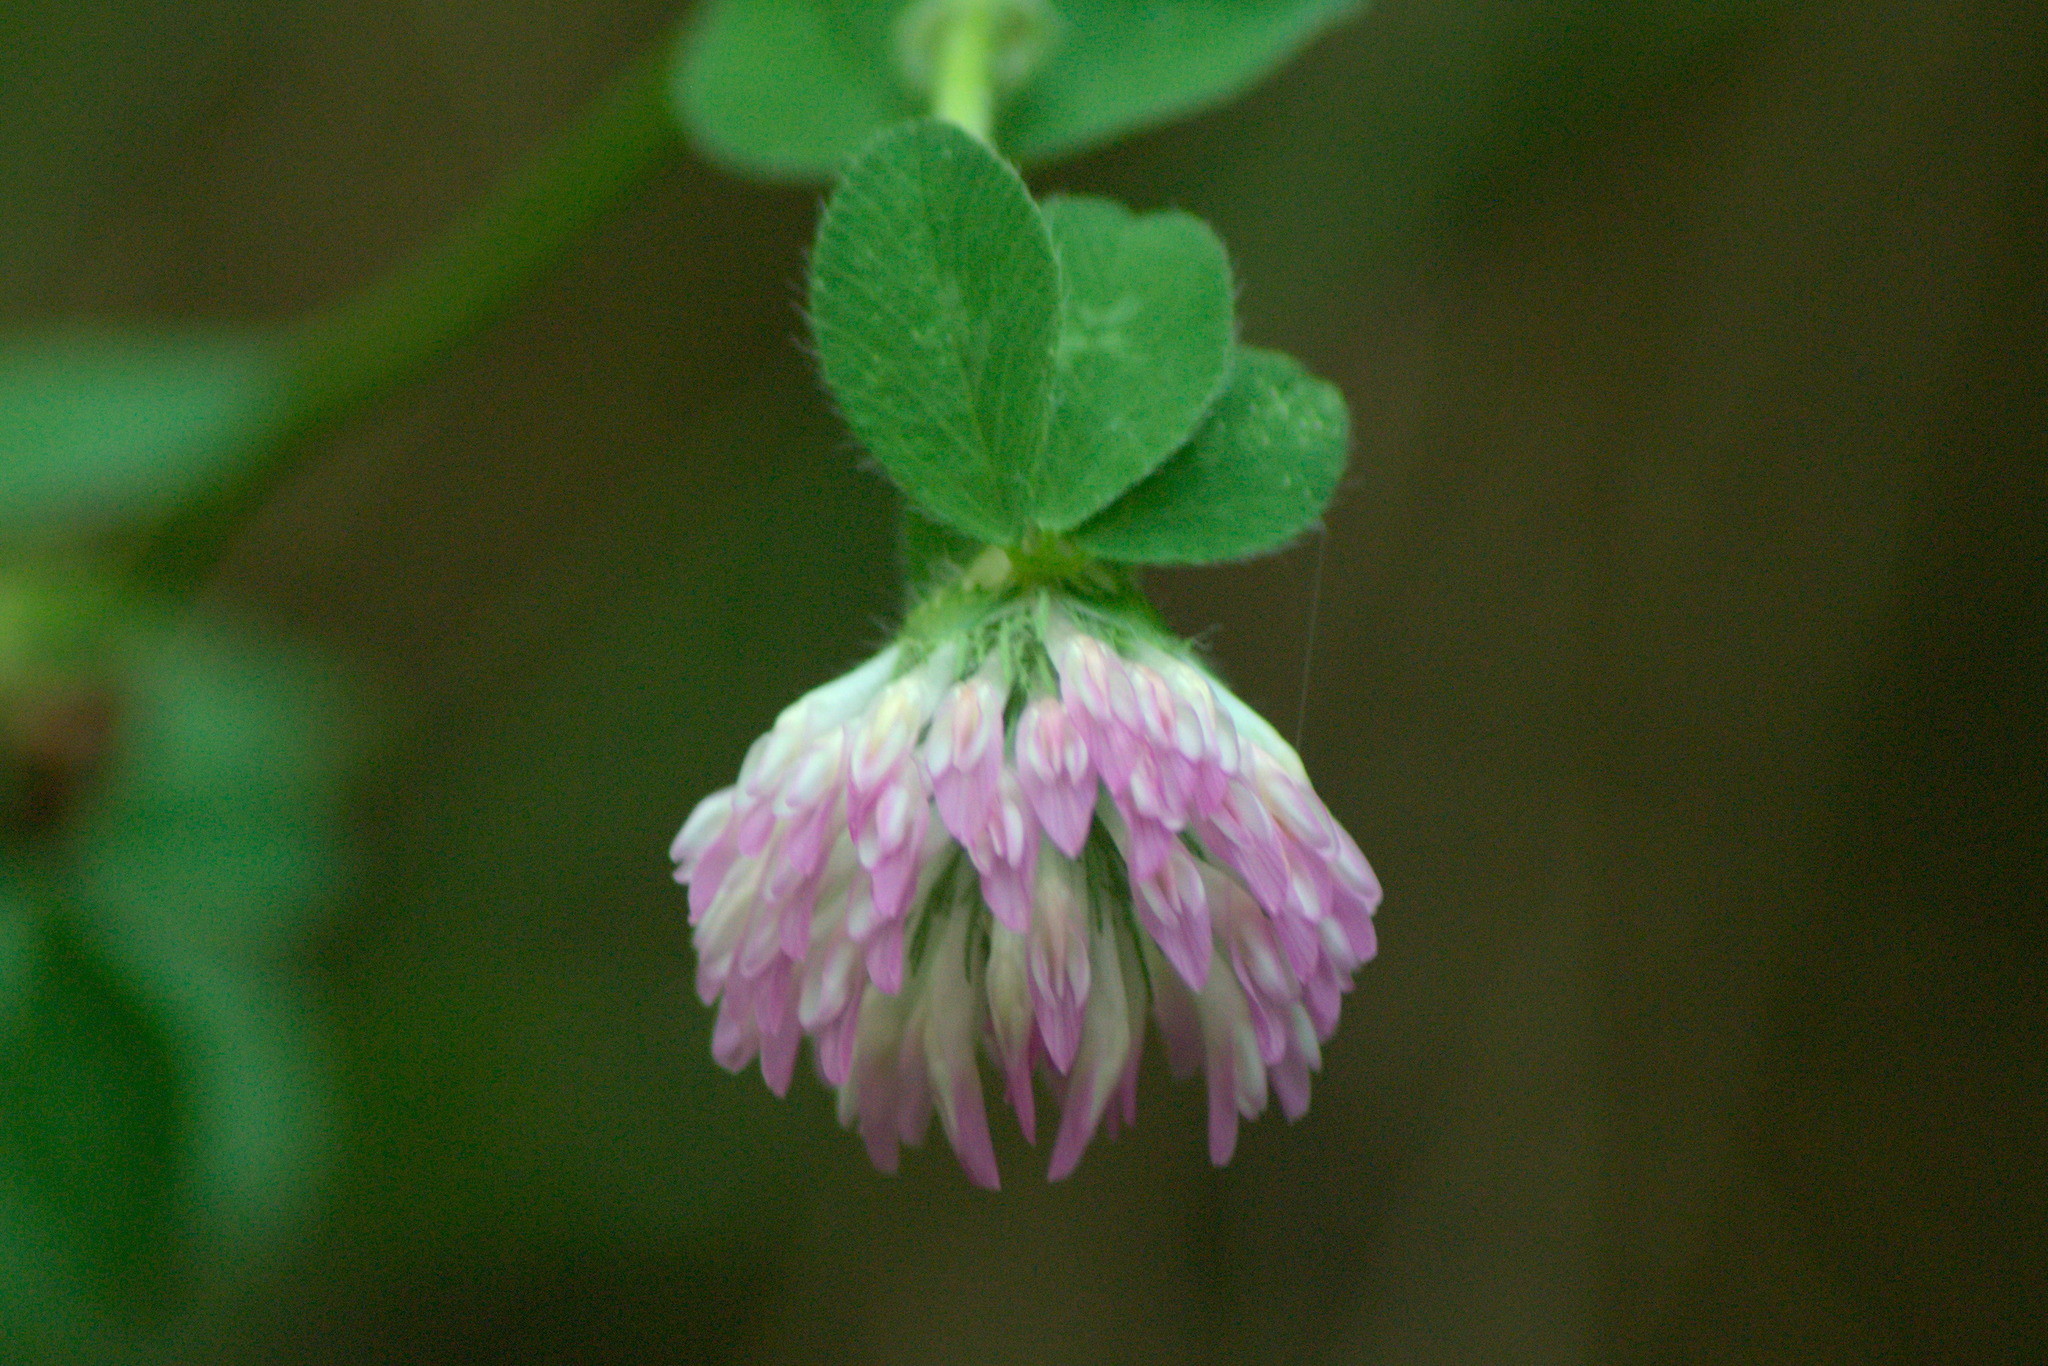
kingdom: Plantae
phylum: Tracheophyta
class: Magnoliopsida
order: Fabales
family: Fabaceae
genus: Trifolium
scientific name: Trifolium pratense
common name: Red clover
